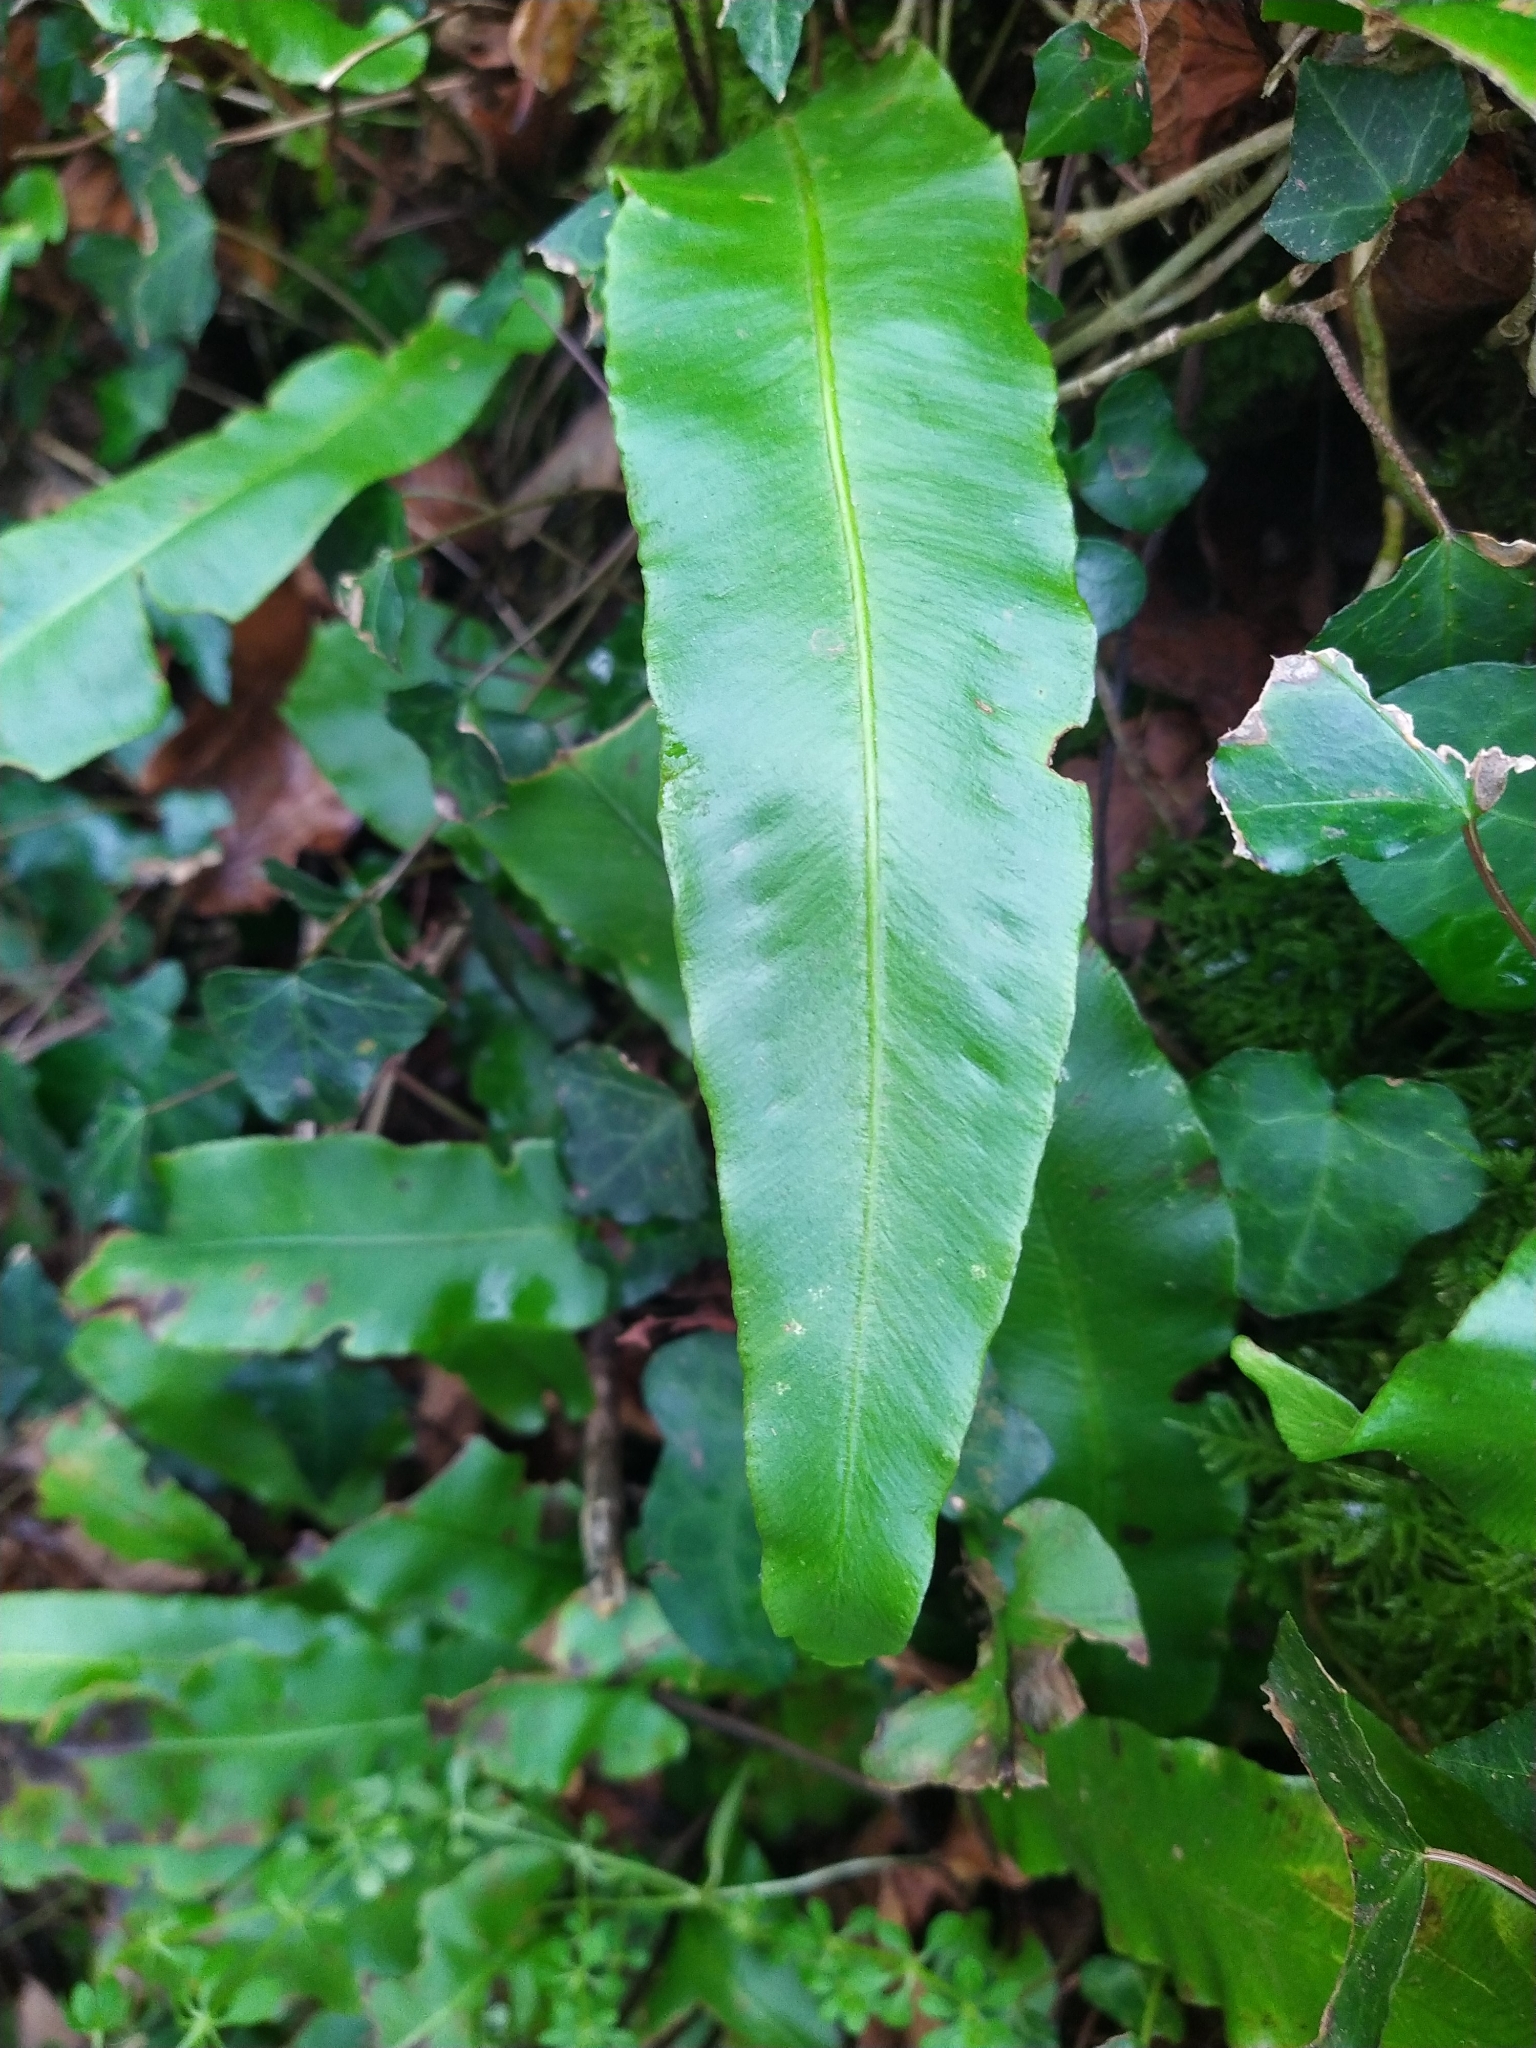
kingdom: Plantae
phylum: Tracheophyta
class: Polypodiopsida
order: Polypodiales
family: Aspleniaceae
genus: Asplenium
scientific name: Asplenium scolopendrium
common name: Hart's-tongue fern
